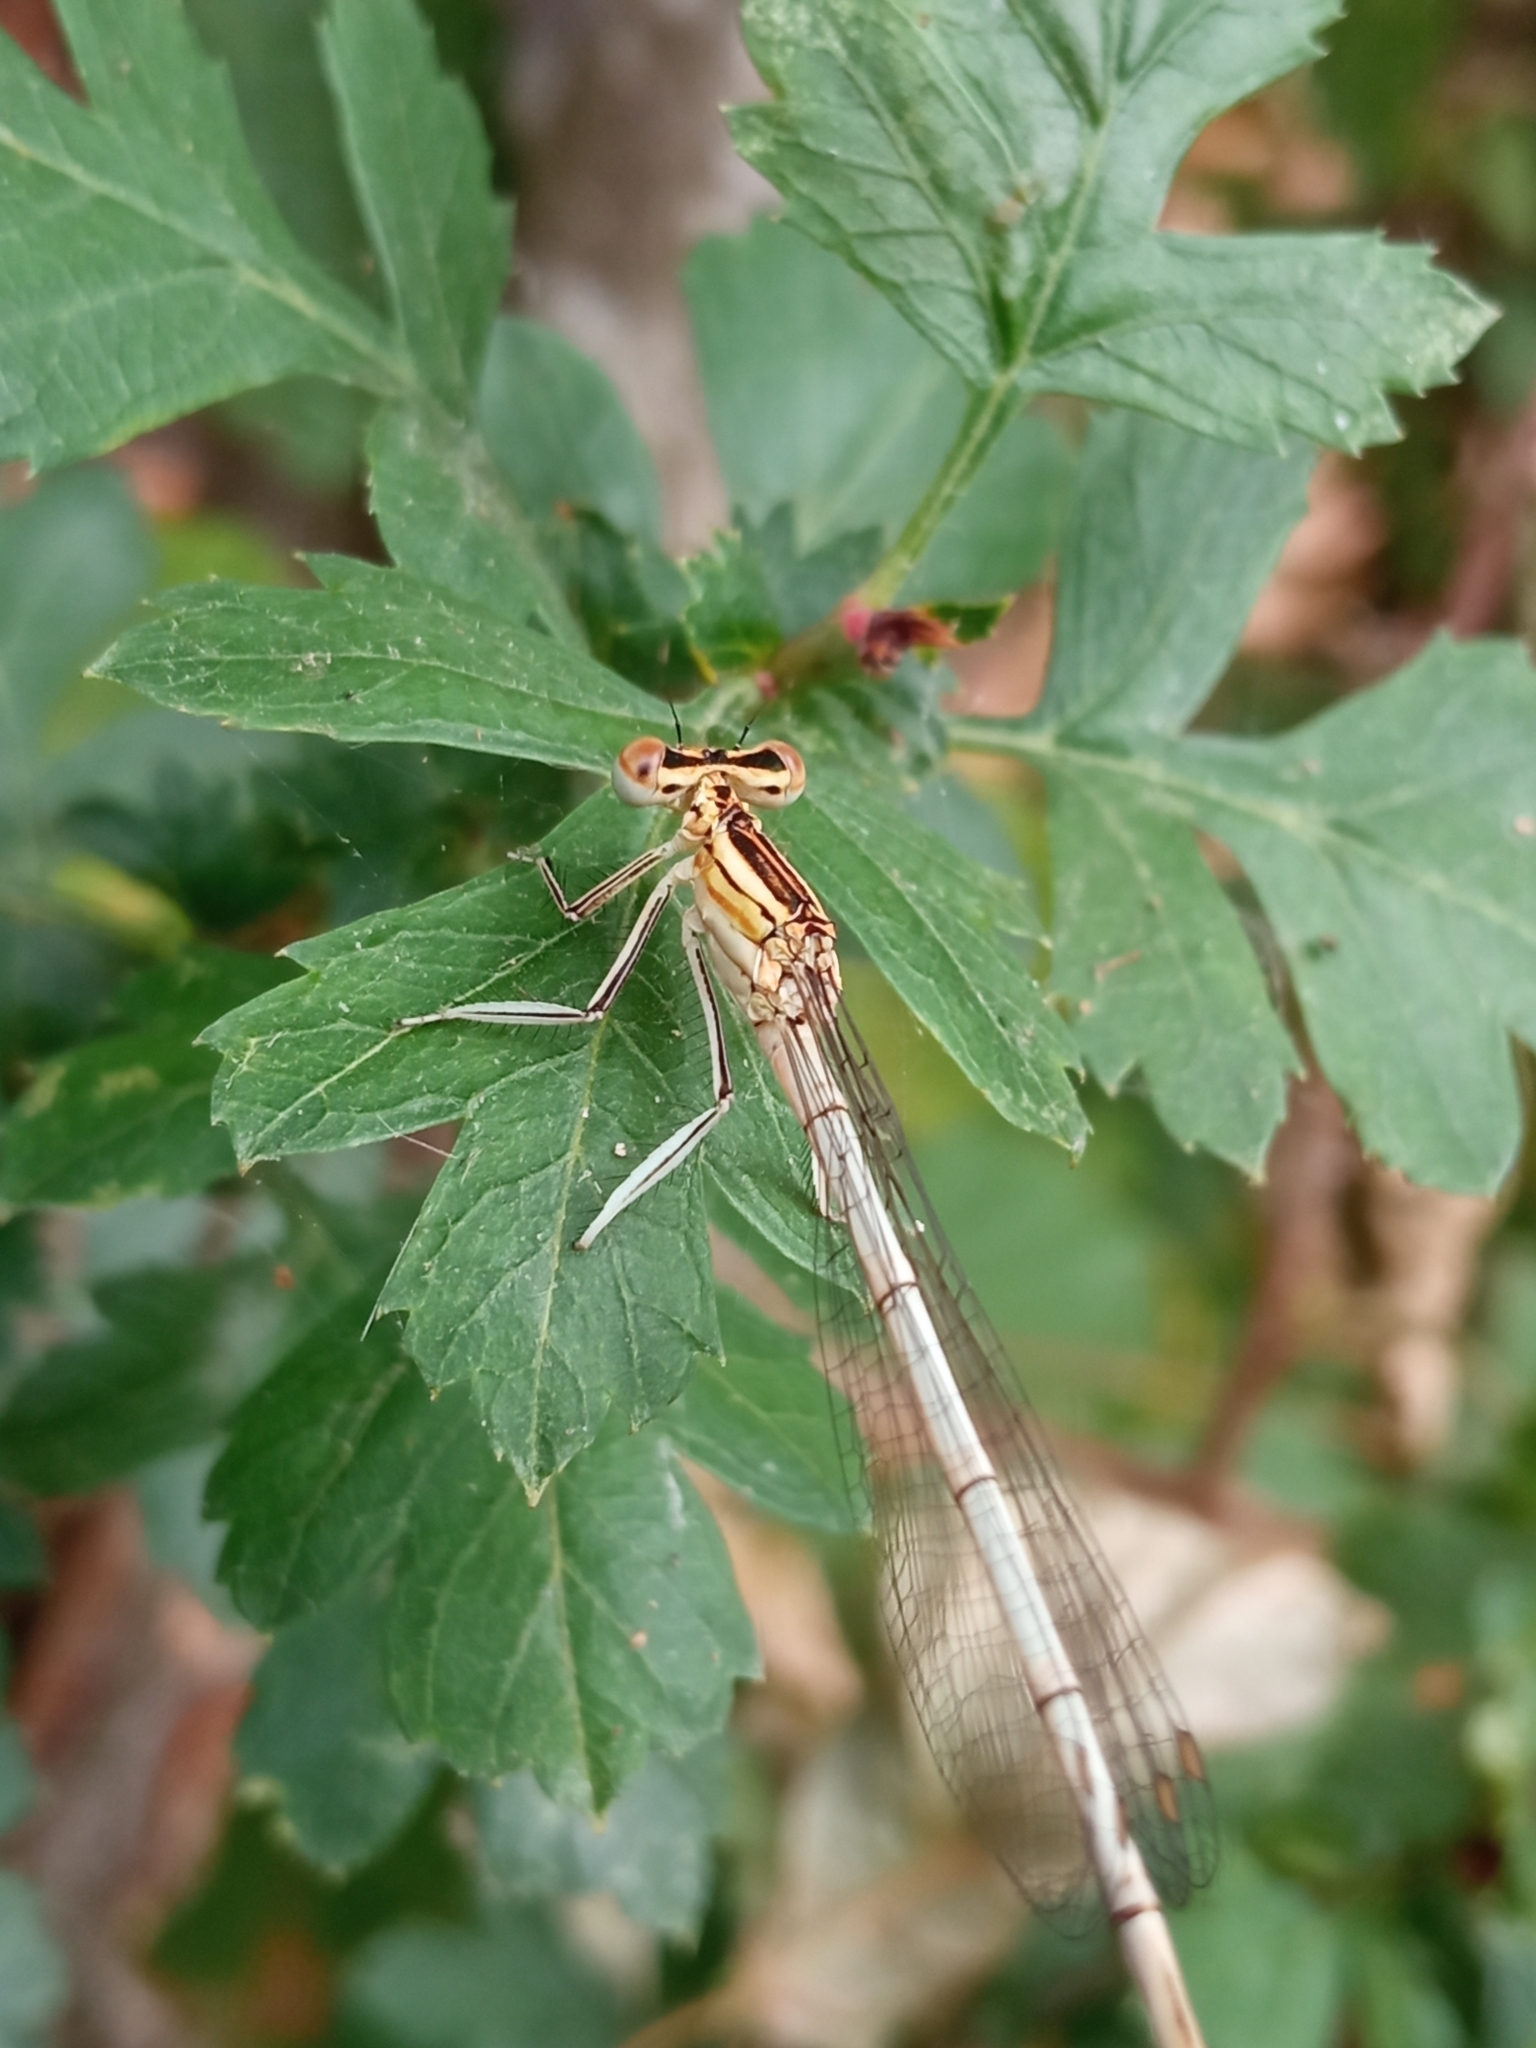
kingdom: Animalia
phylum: Arthropoda
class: Insecta
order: Odonata
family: Platycnemididae
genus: Platycnemis
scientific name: Platycnemis pennipes
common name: White-legged damselfly
